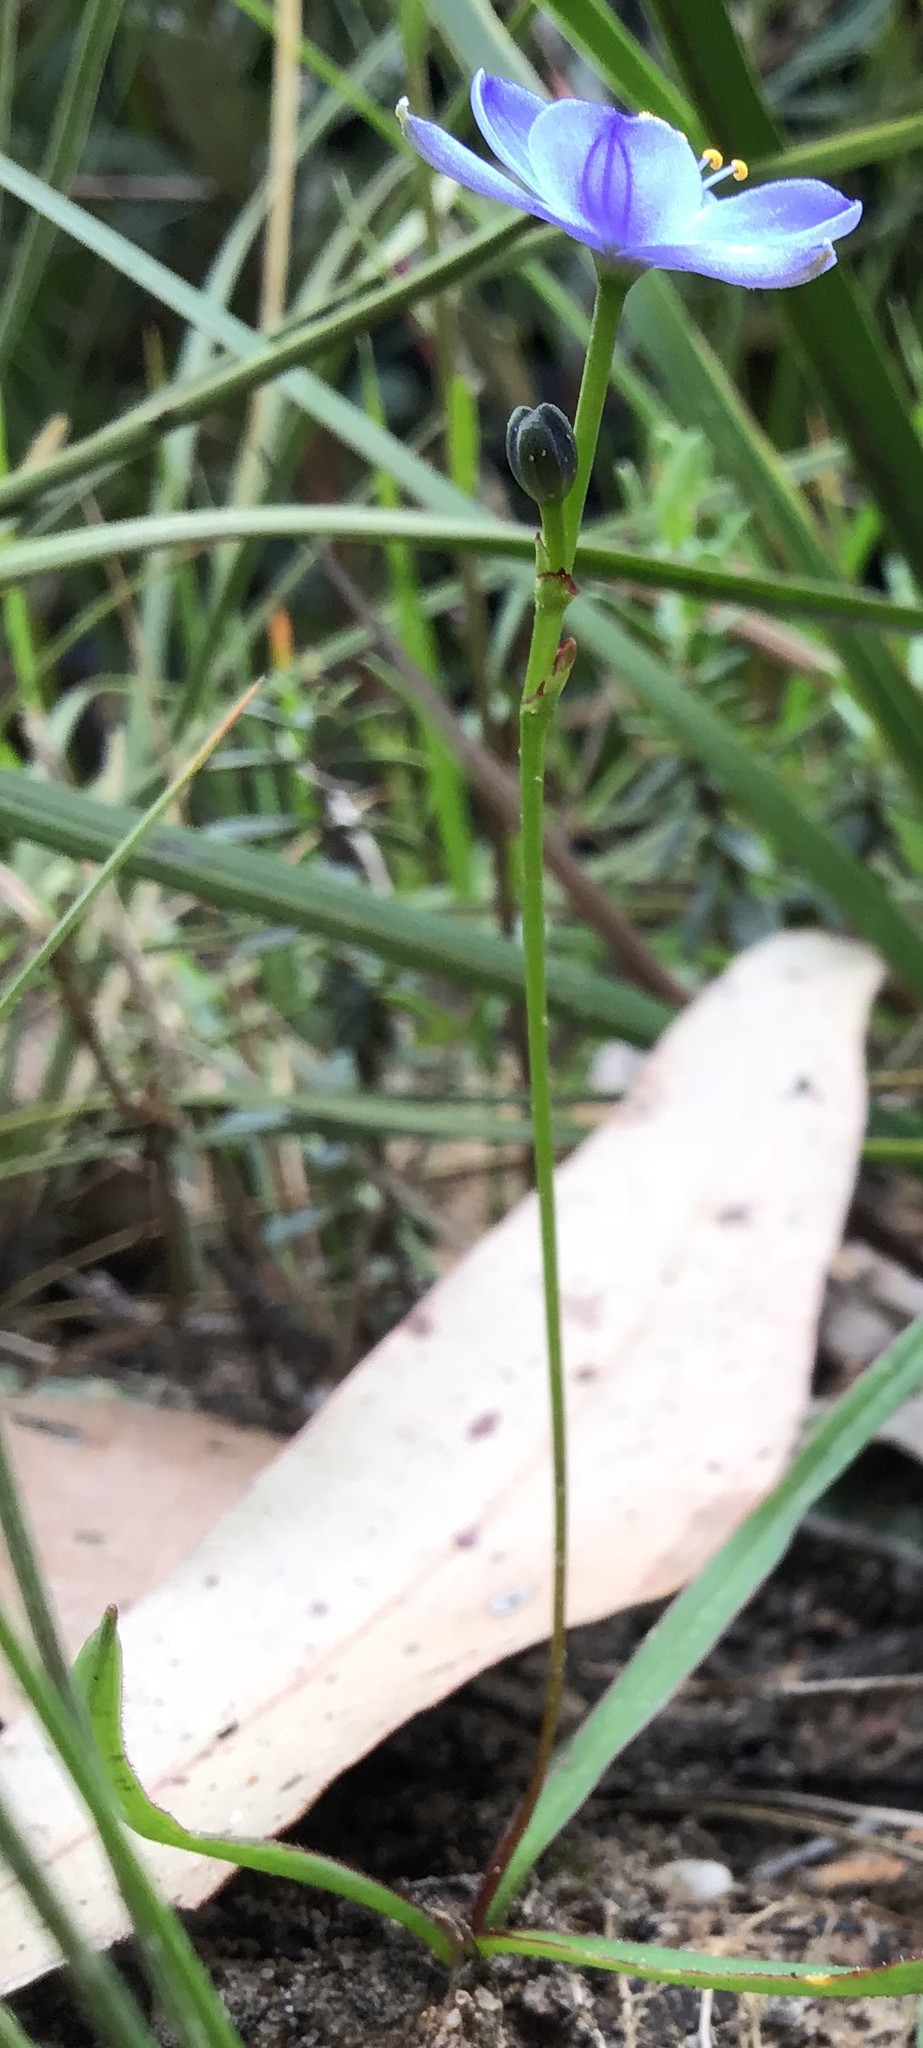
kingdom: Plantae
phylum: Tracheophyta
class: Liliopsida
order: Asparagales
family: Asphodelaceae
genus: Chamaescilla
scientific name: Chamaescilla corymbosa
